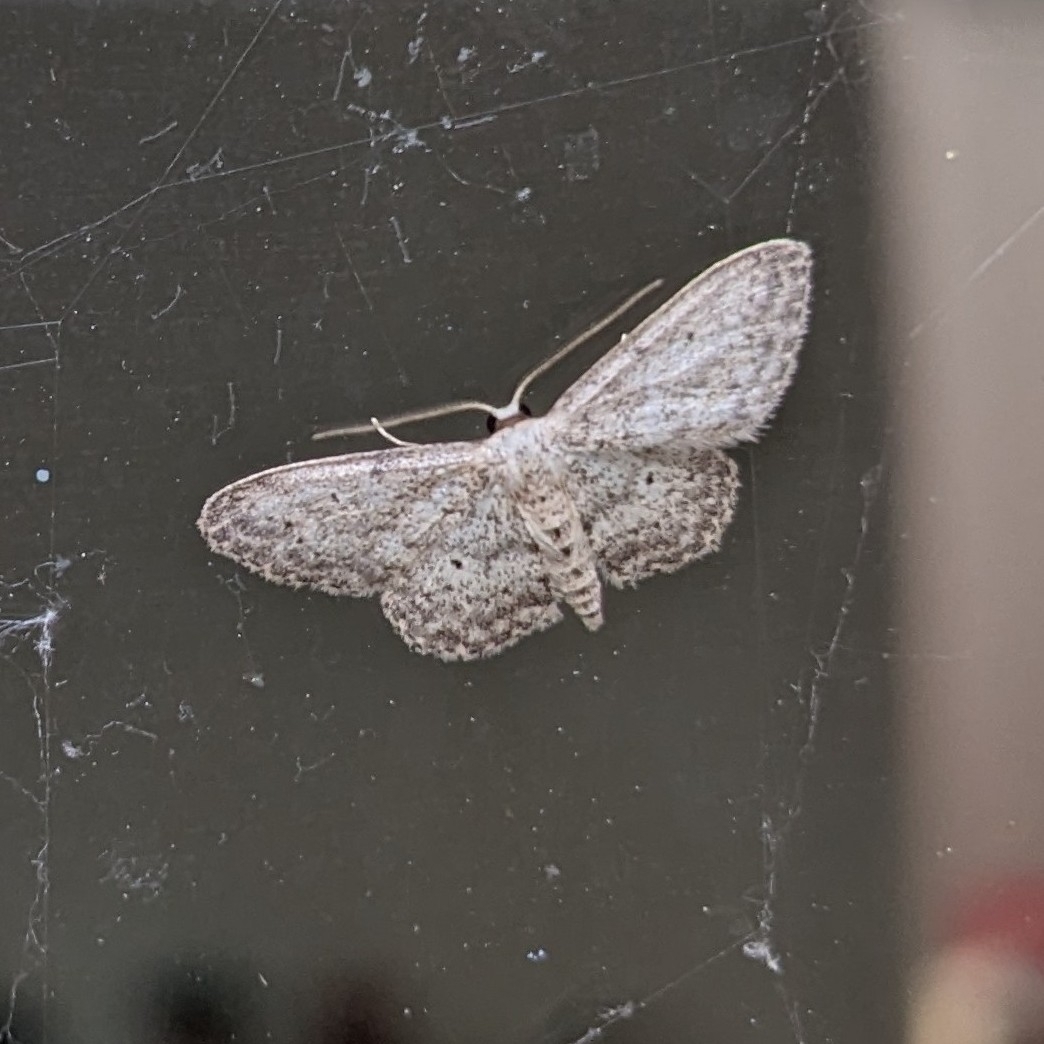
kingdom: Animalia
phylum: Arthropoda
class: Insecta
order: Lepidoptera
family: Geometridae
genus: Idaea
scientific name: Idaea seriata
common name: Small dusty wave
